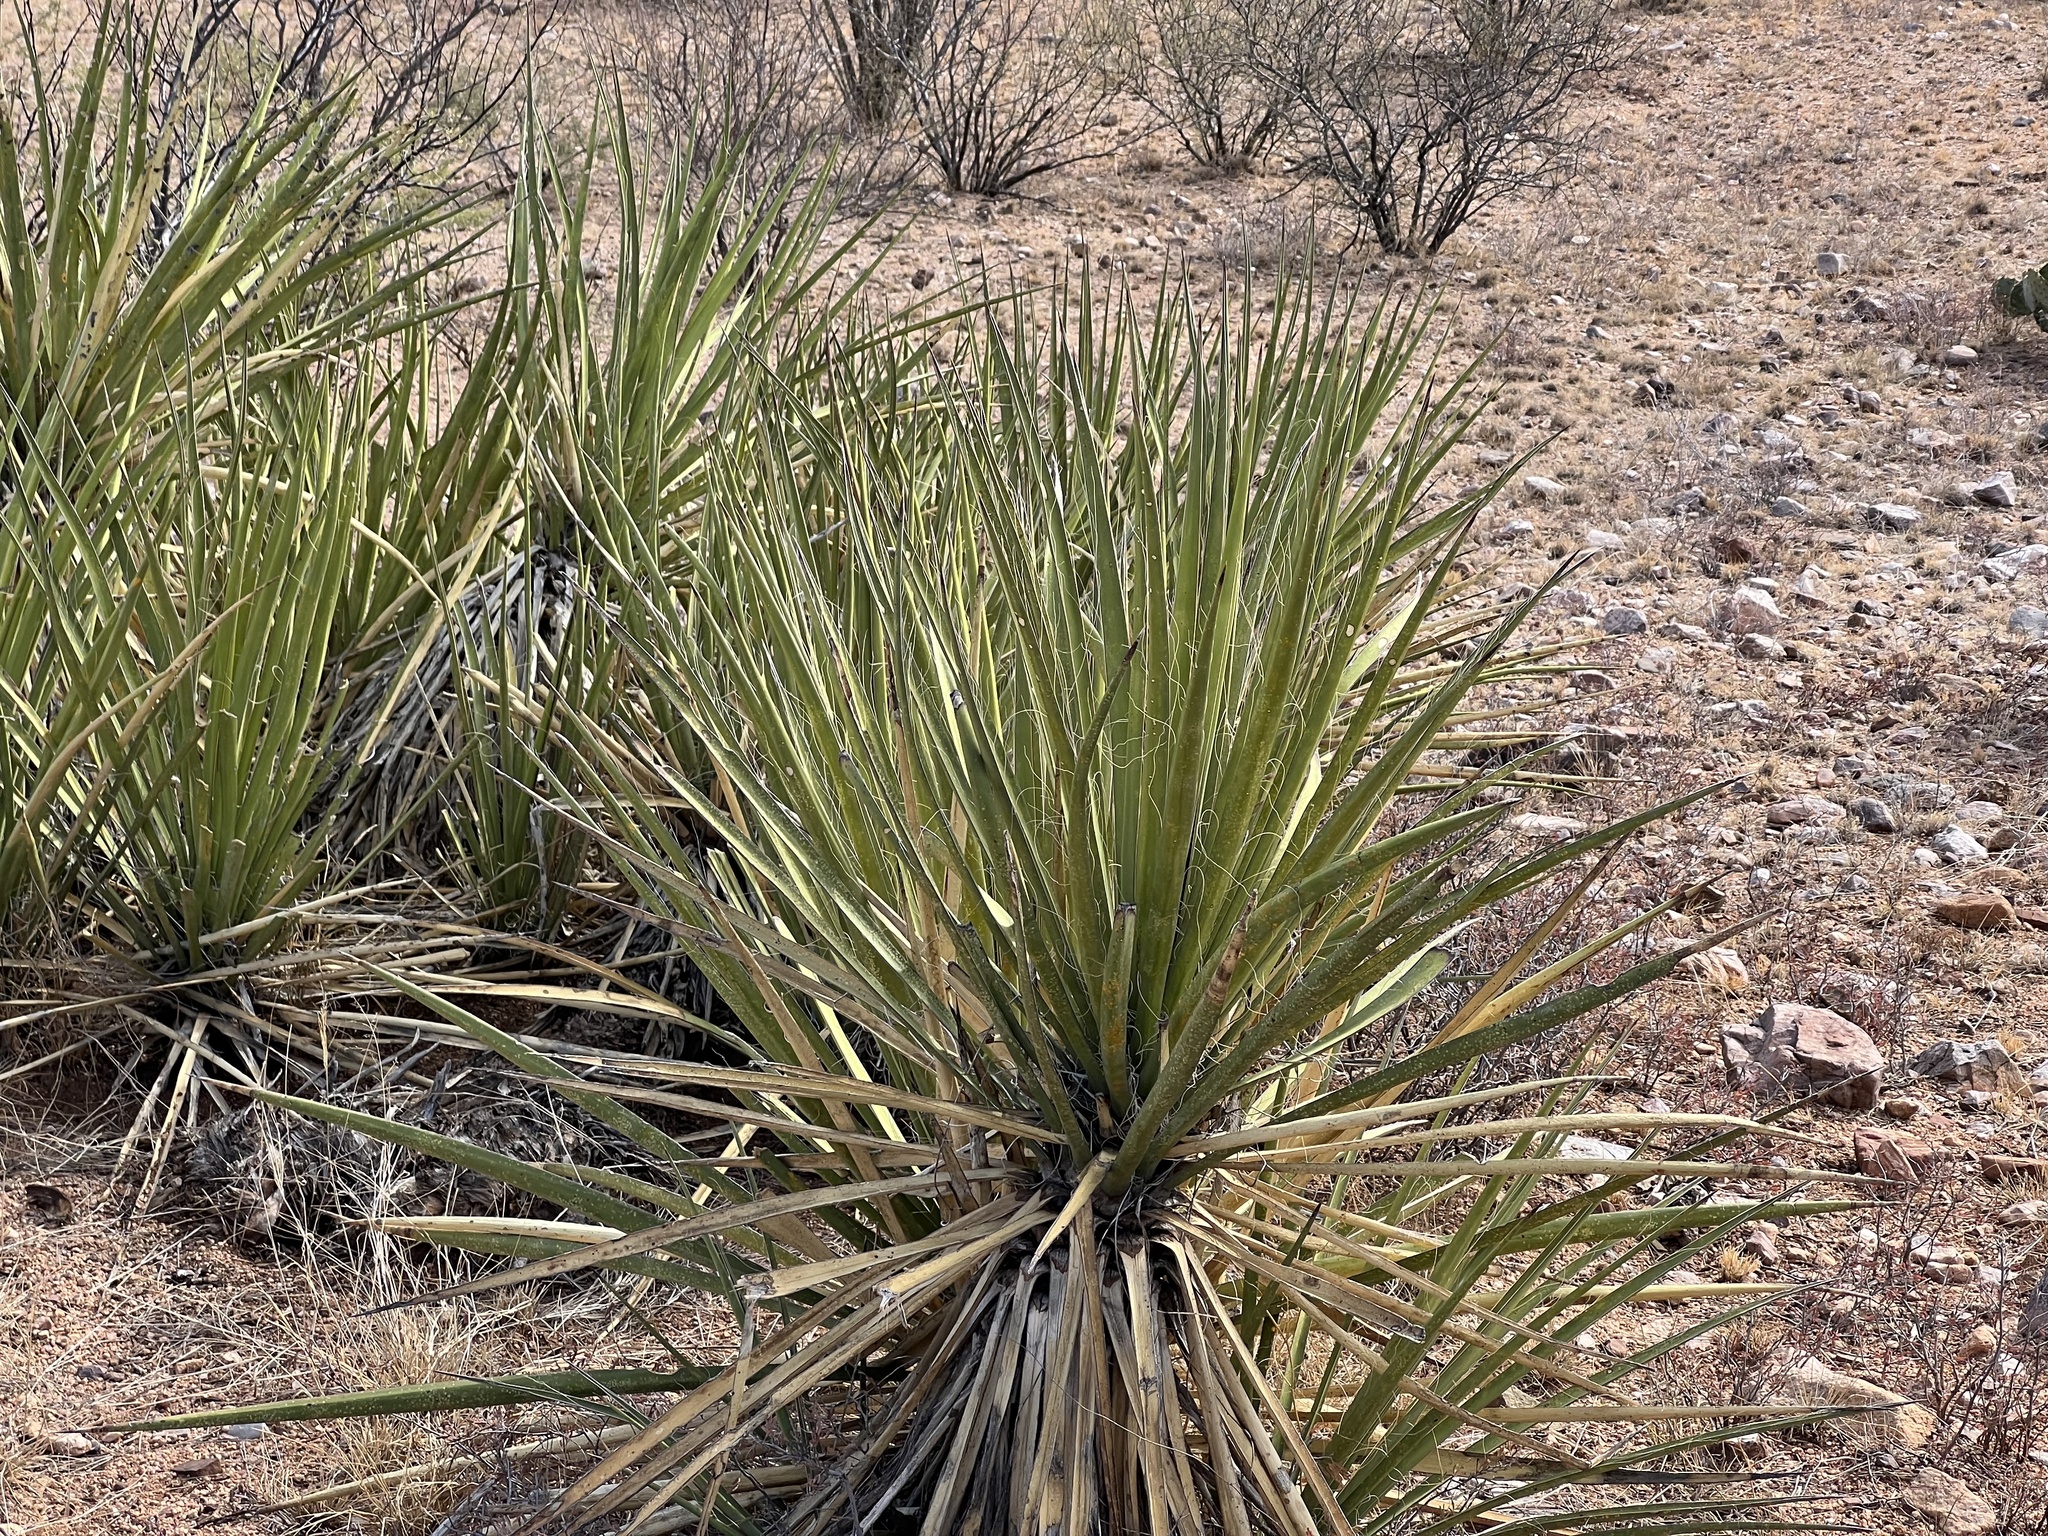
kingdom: Plantae
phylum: Tracheophyta
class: Liliopsida
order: Asparagales
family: Asparagaceae
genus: Yucca
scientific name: Yucca baccata
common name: Banana yucca
